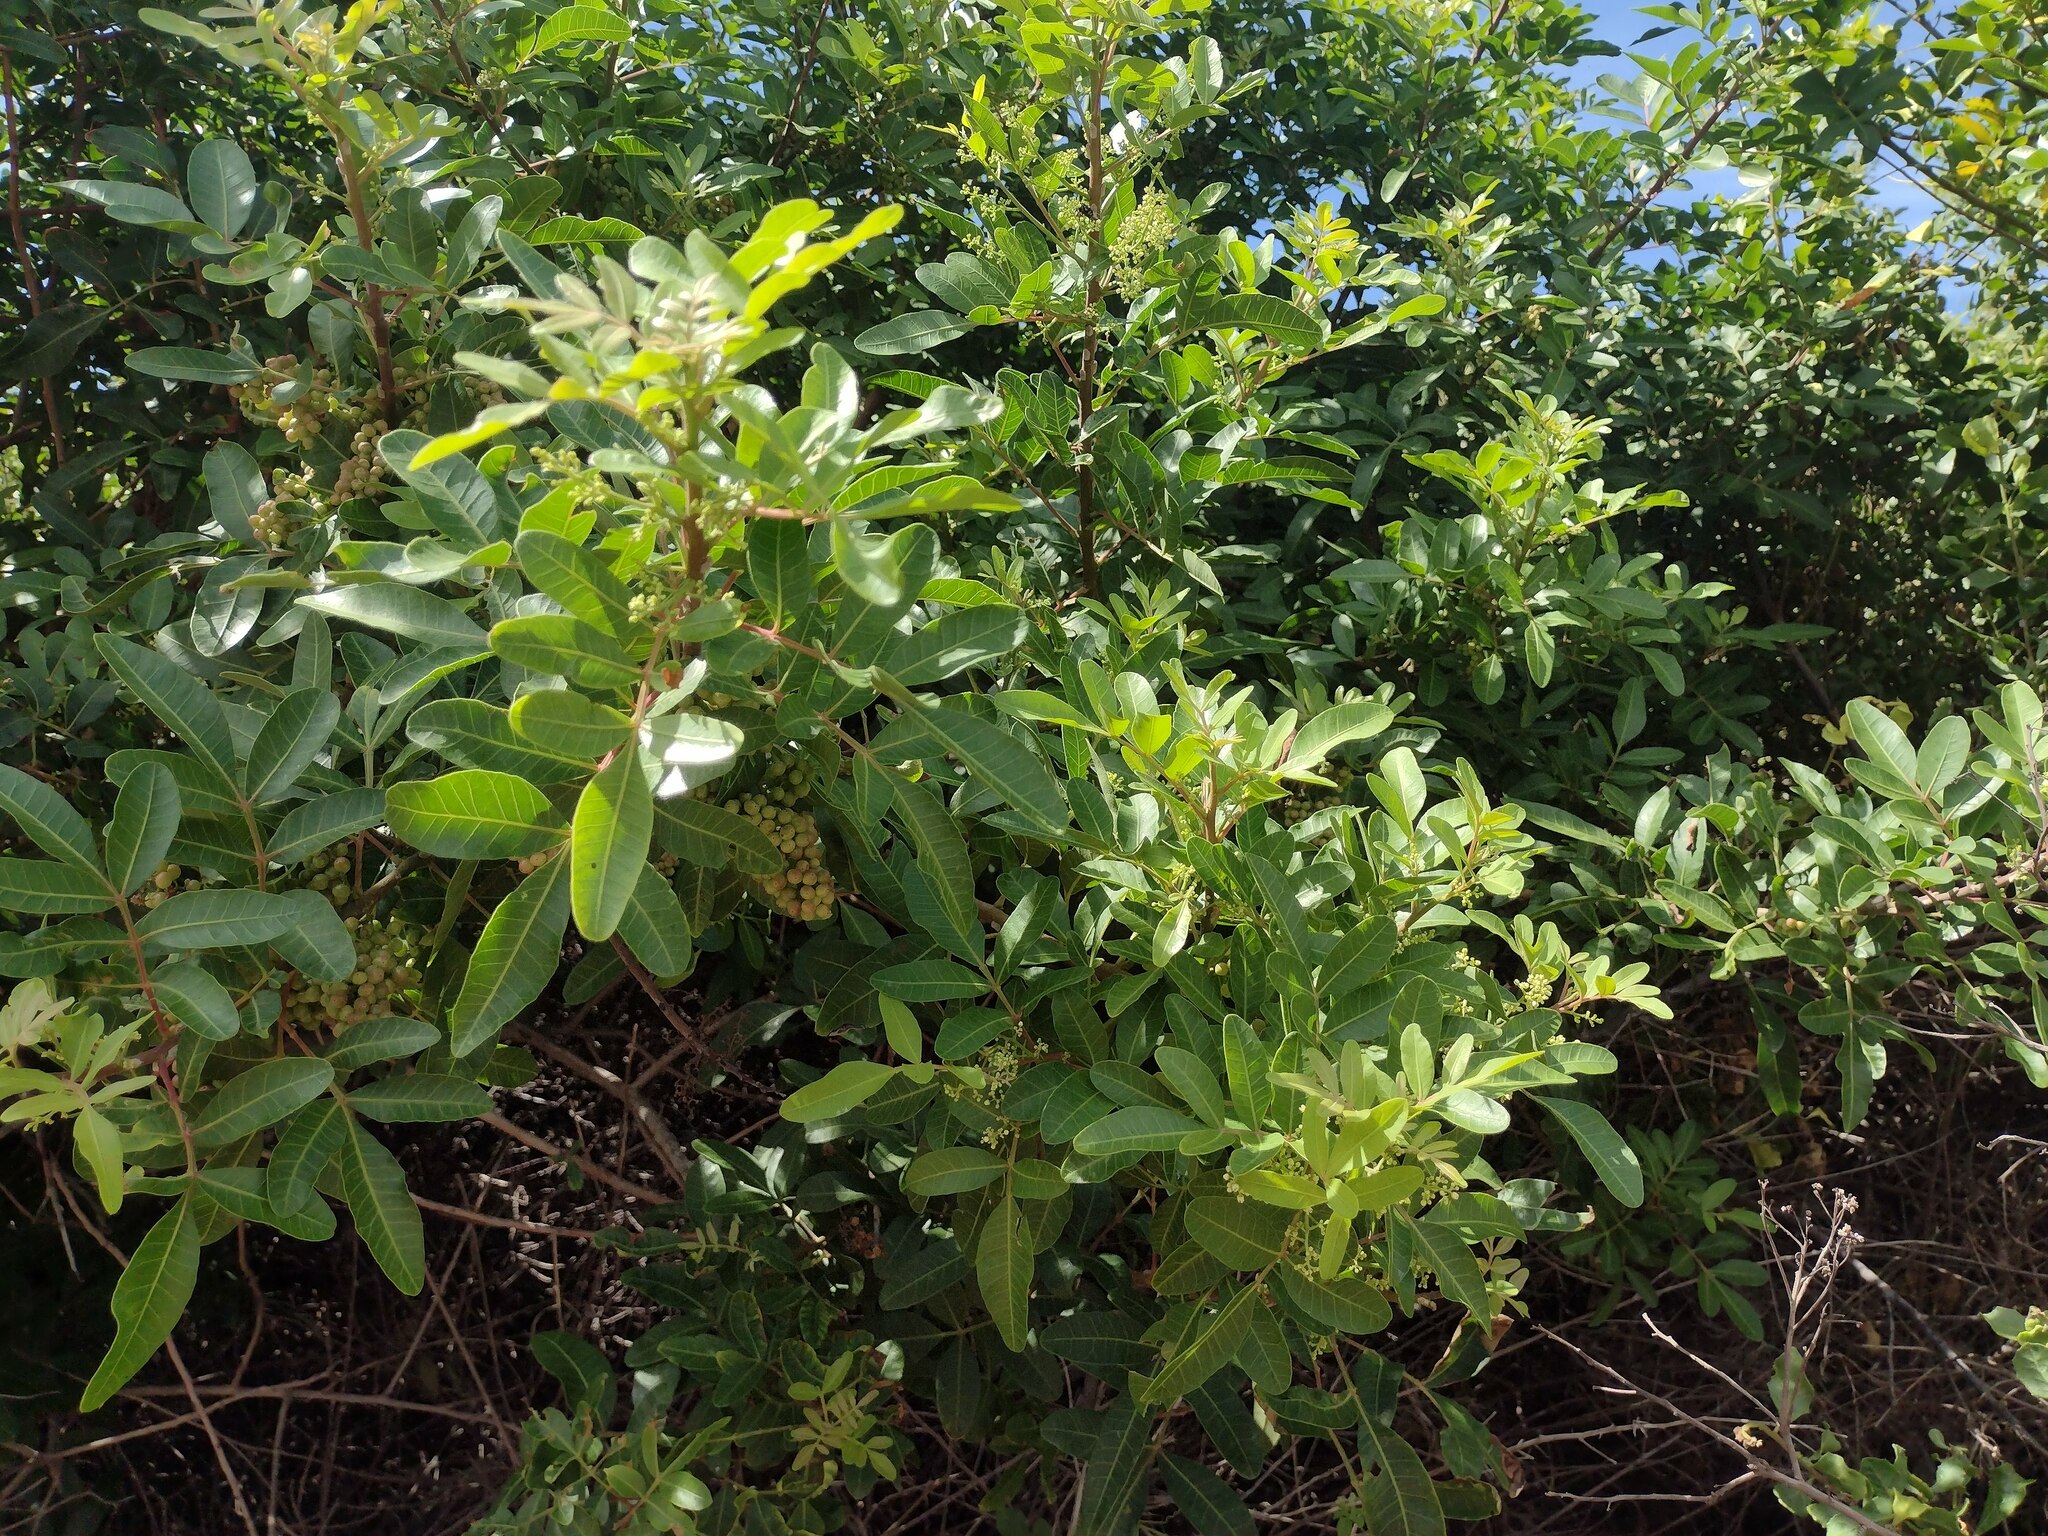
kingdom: Plantae
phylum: Tracheophyta
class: Magnoliopsida
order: Sapindales
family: Anacardiaceae
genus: Schinus
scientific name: Schinus terebinthifolia
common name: Brazilian peppertree
